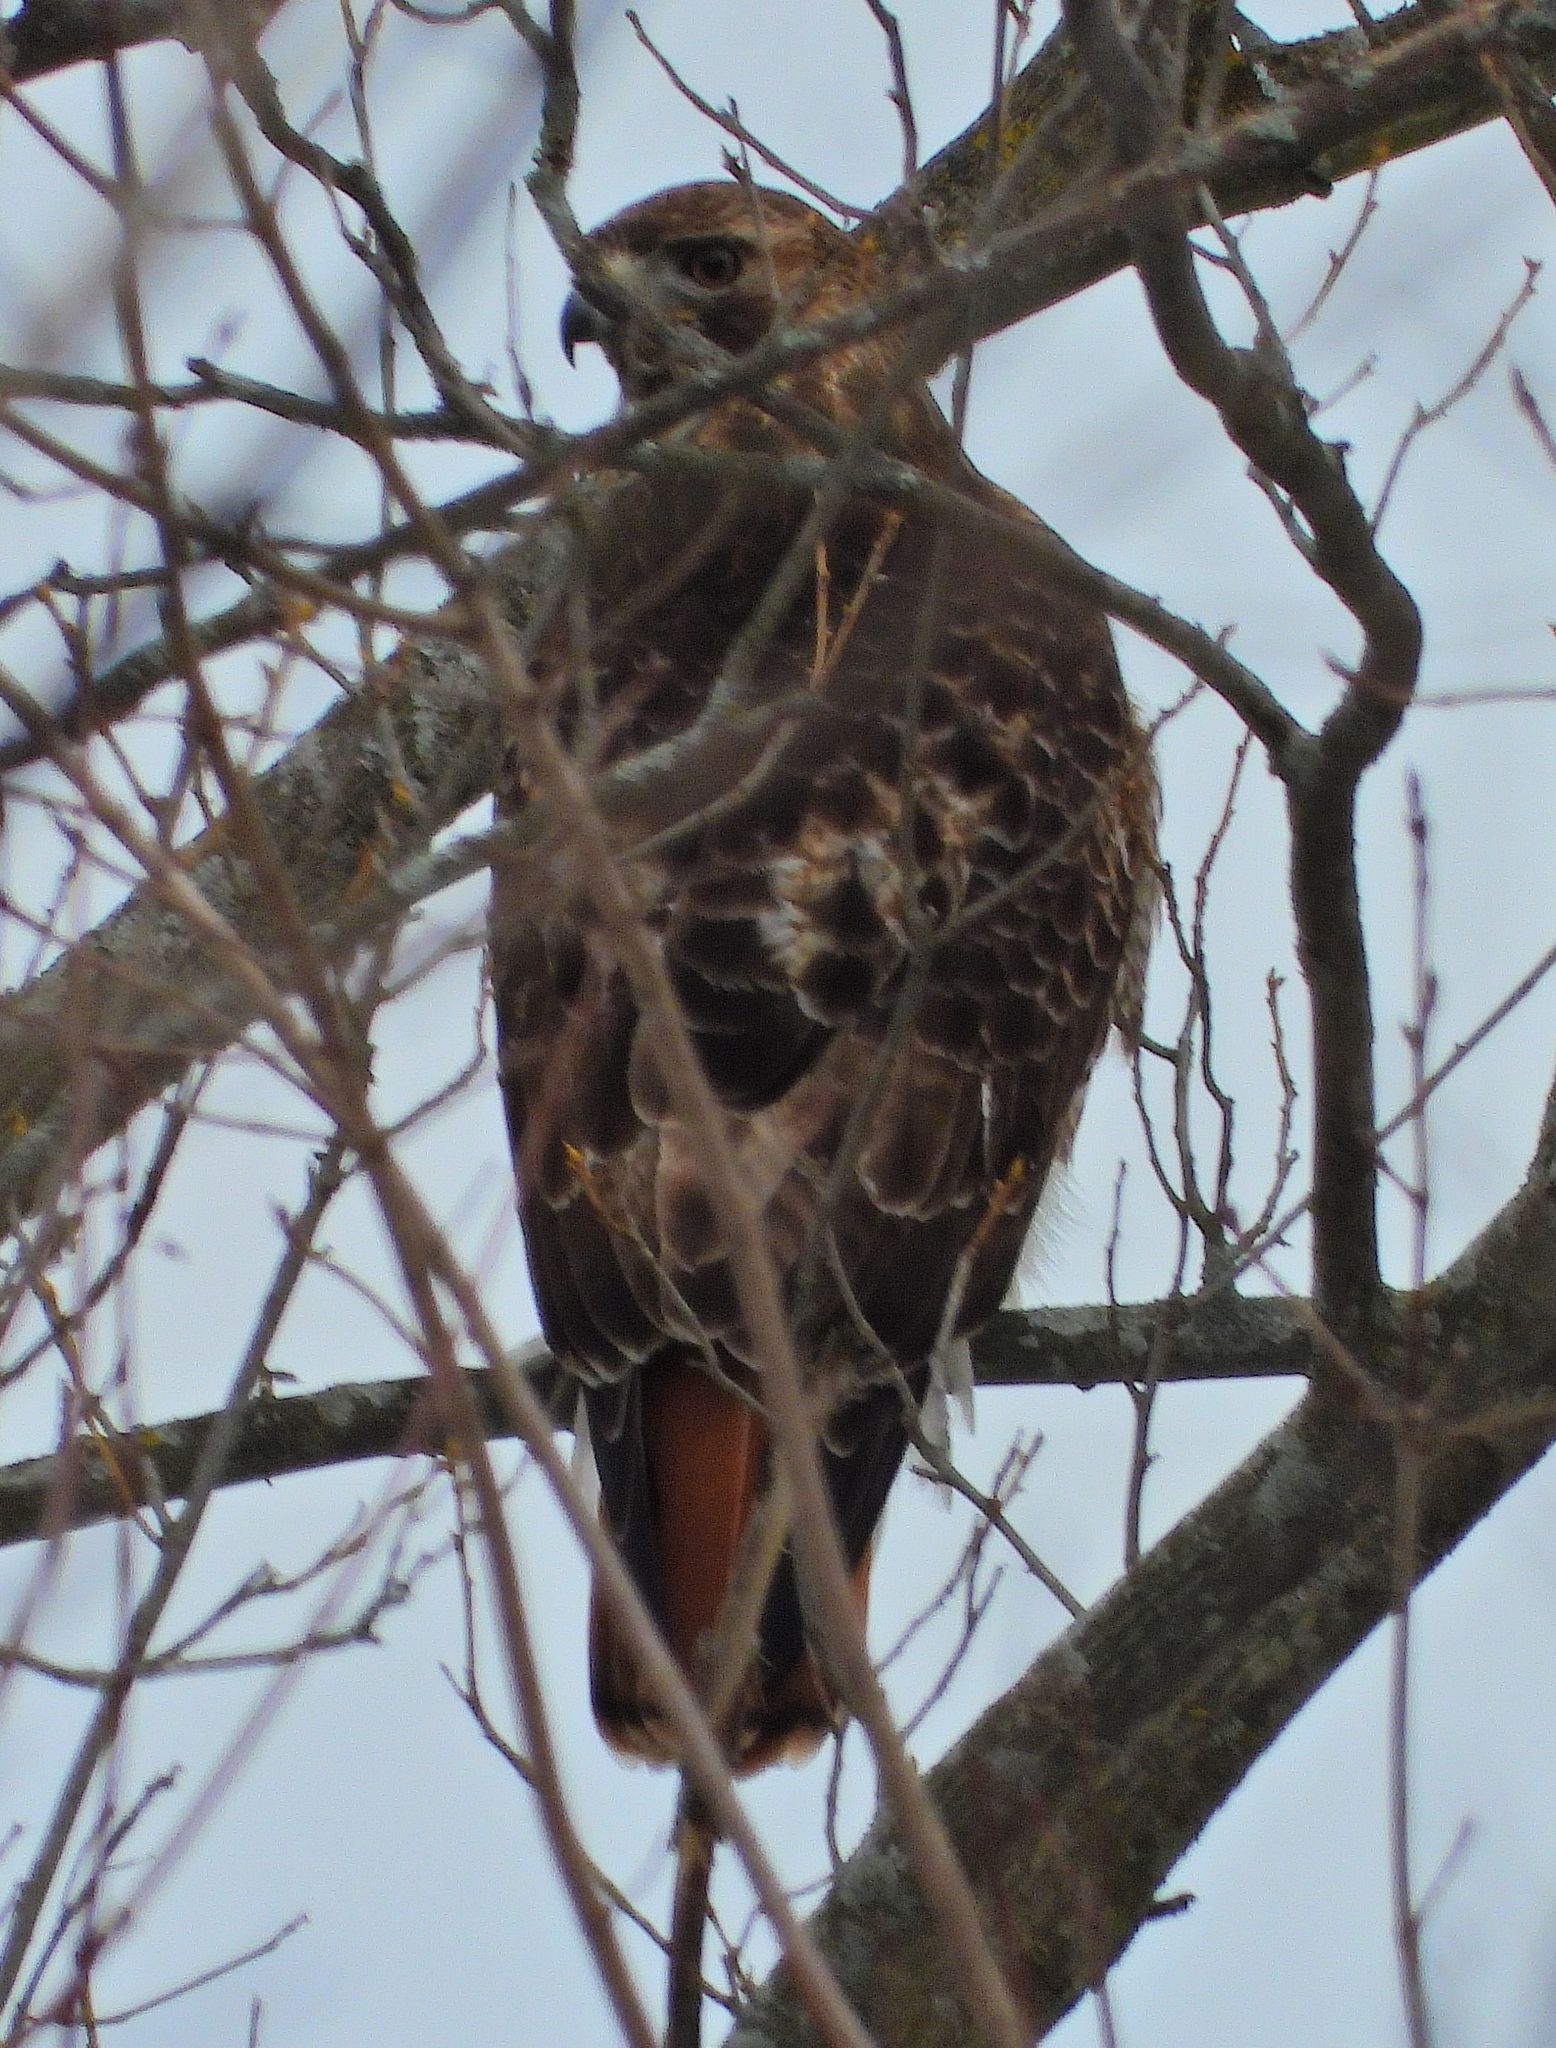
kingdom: Animalia
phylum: Chordata
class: Aves
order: Accipitriformes
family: Accipitridae
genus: Buteo
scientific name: Buteo jamaicensis
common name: Red-tailed hawk
